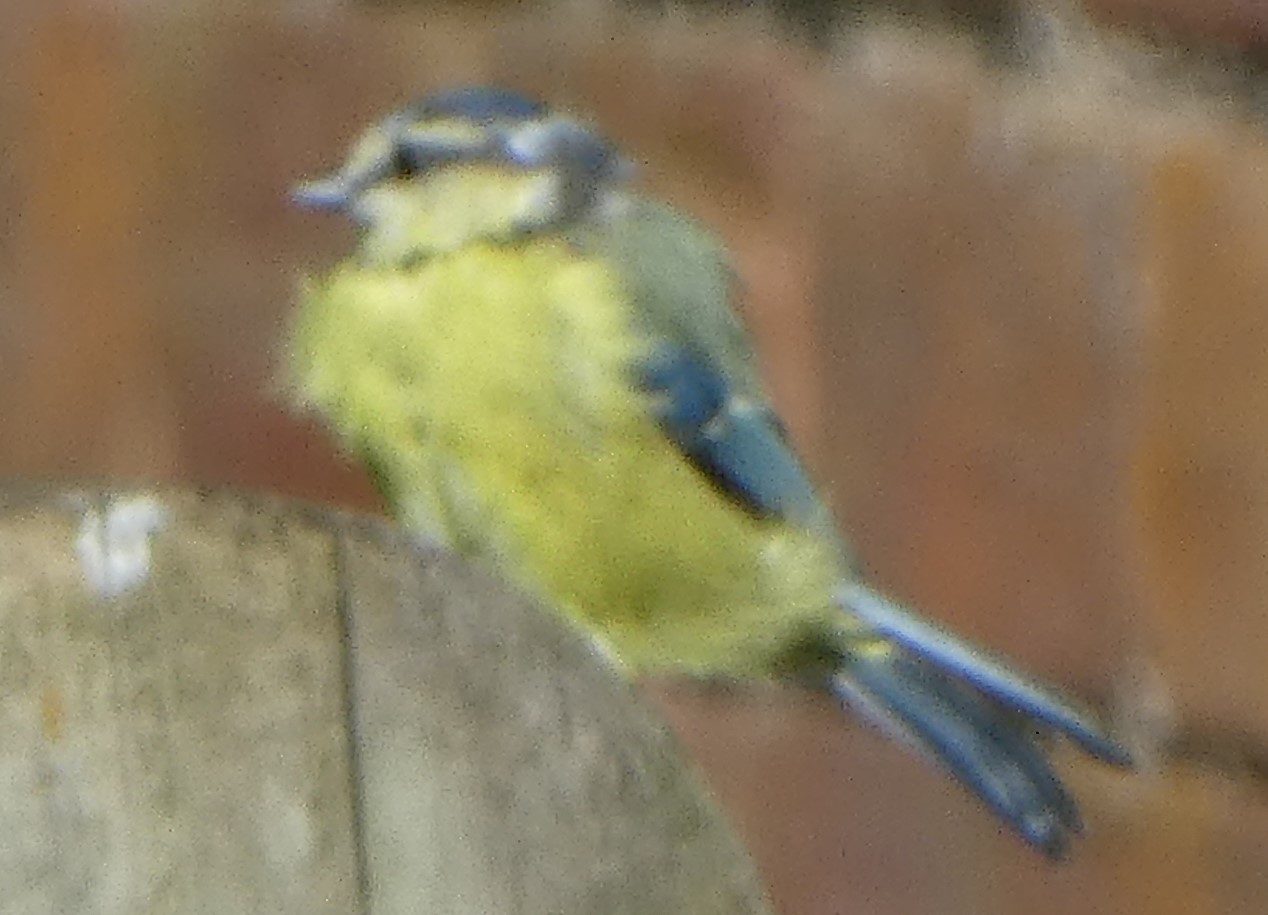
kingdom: Animalia
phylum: Chordata
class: Aves
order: Passeriformes
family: Paridae
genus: Cyanistes
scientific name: Cyanistes caeruleus
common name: Eurasian blue tit
